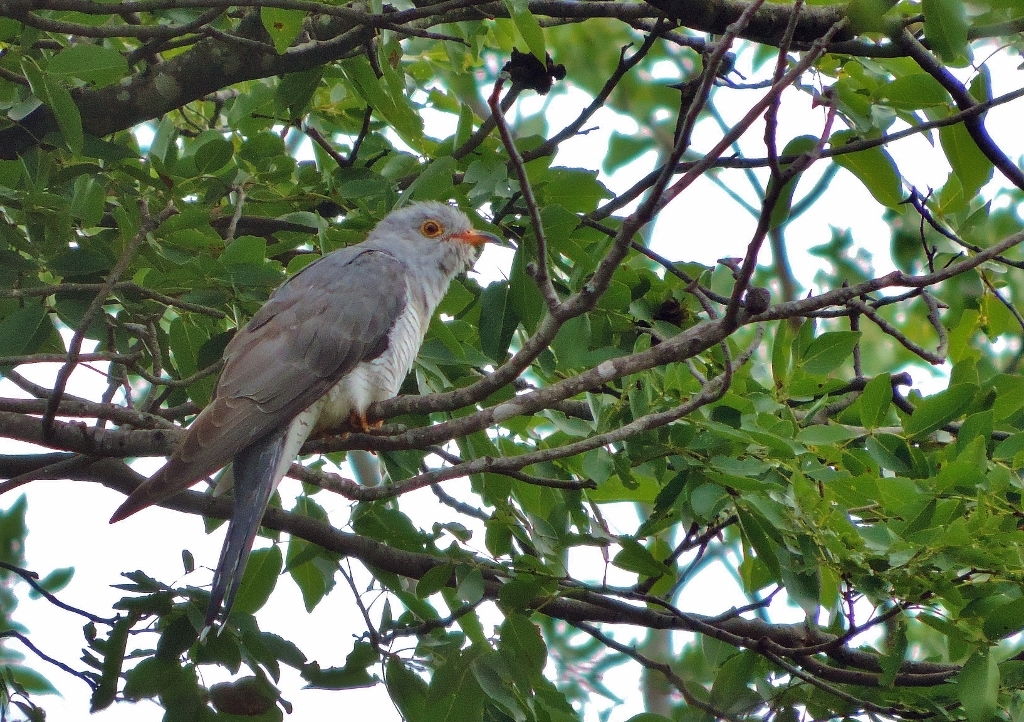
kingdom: Animalia
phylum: Chordata
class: Aves
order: Cuculiformes
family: Cuculidae
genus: Cuculus
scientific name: Cuculus gularis
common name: African cuckoo
